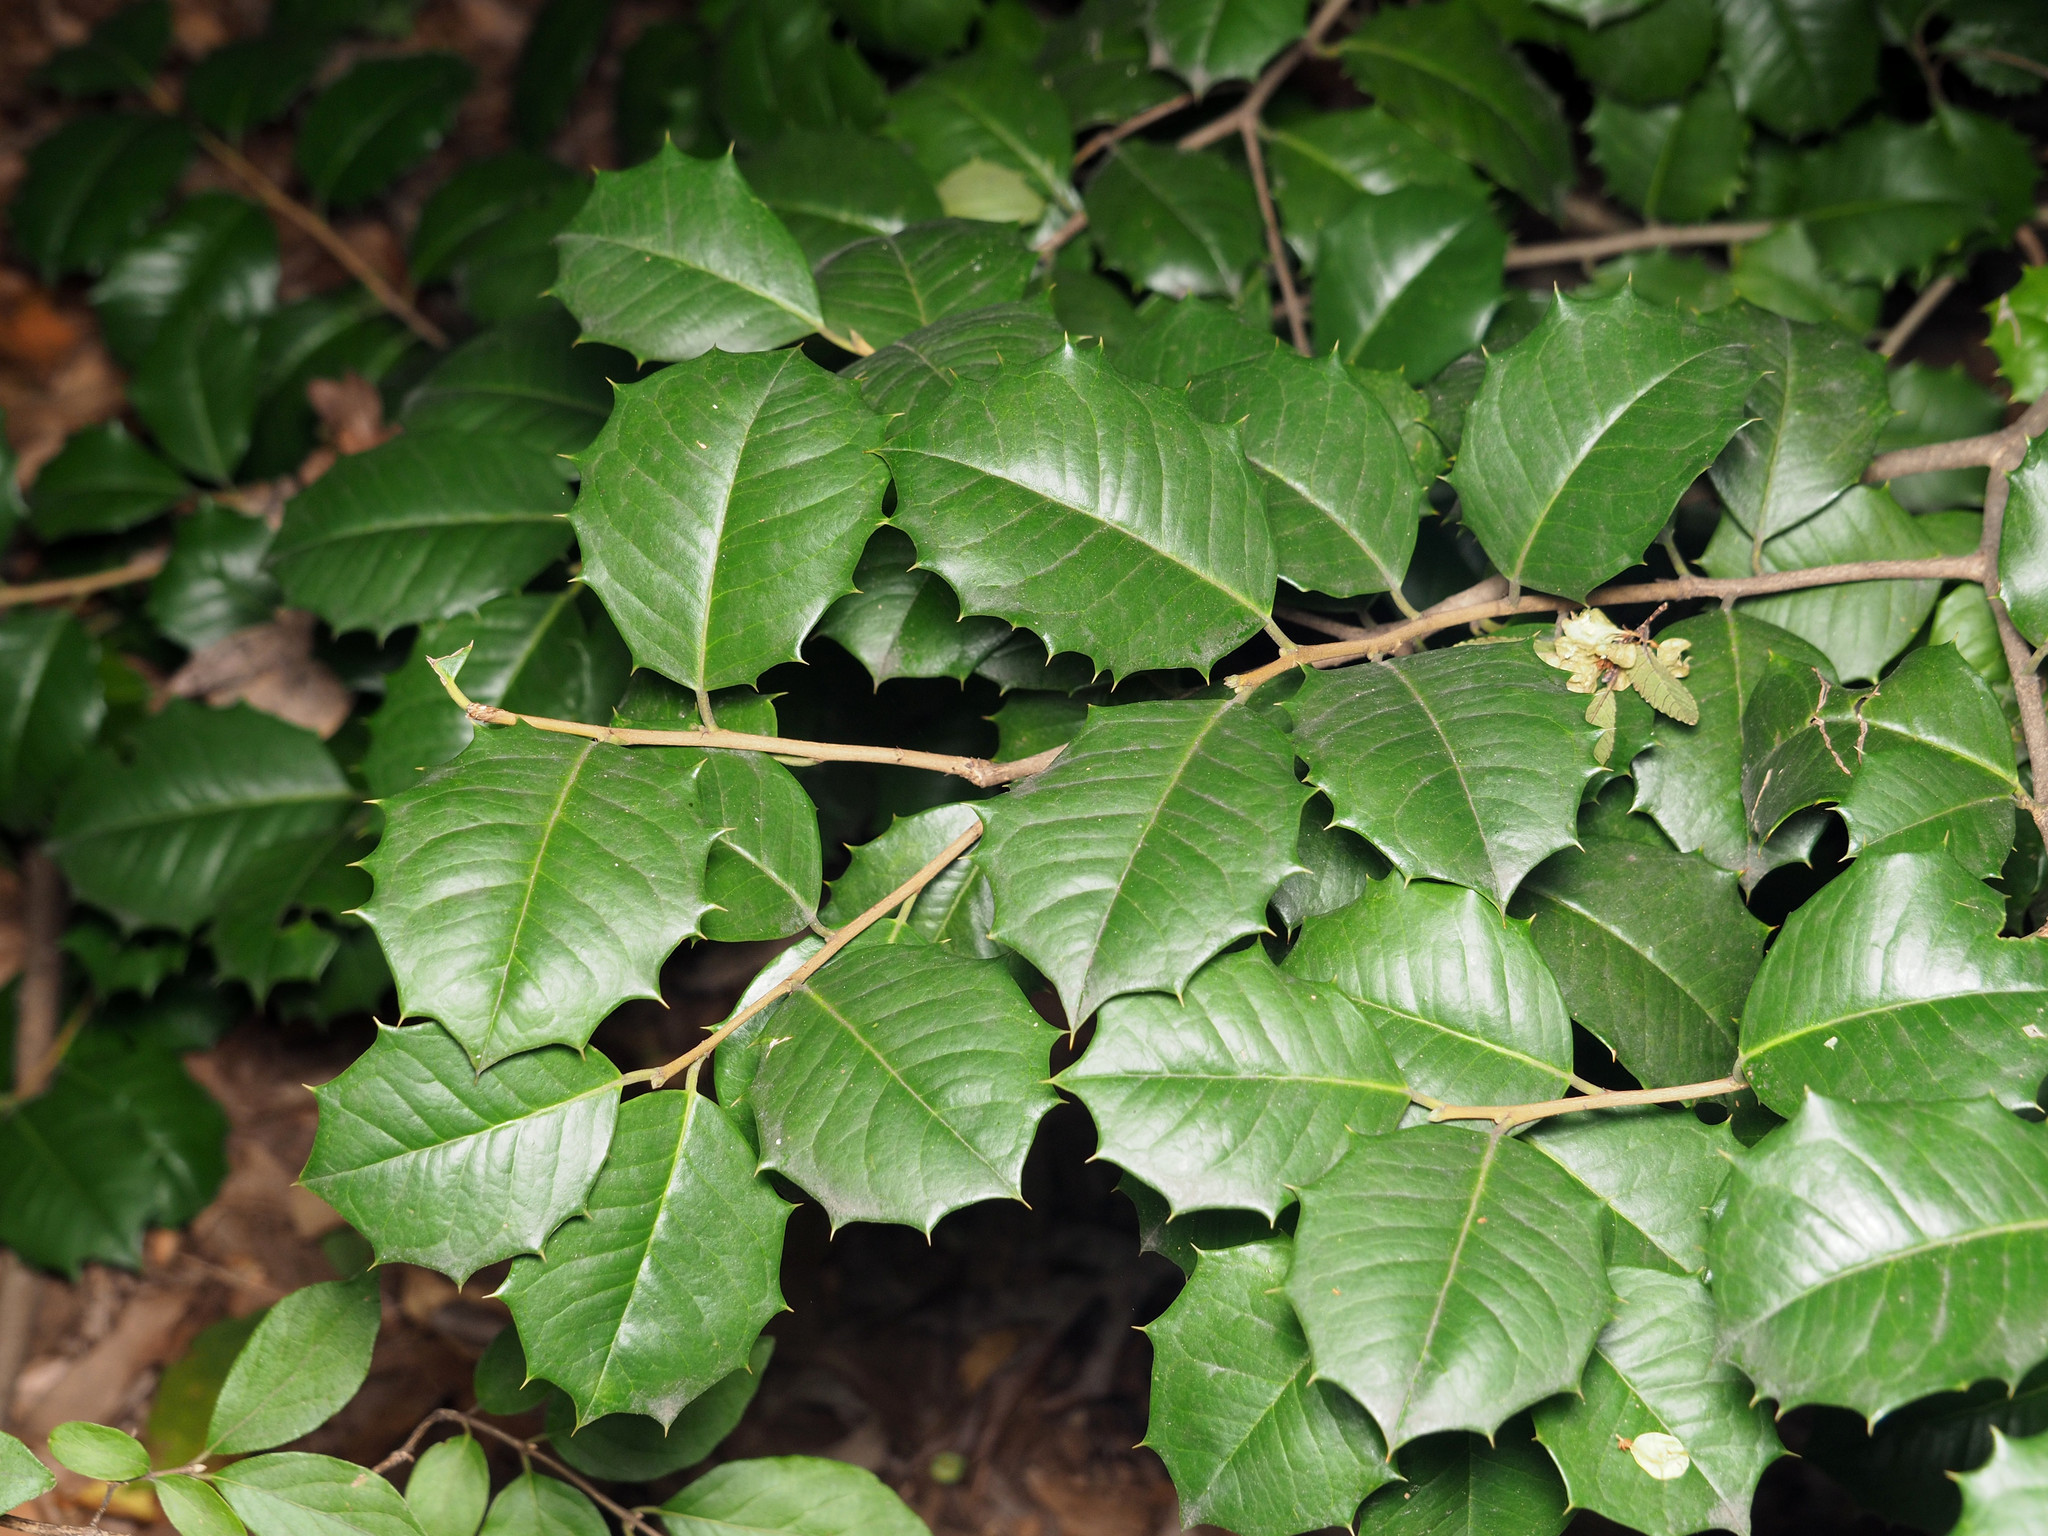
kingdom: Plantae
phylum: Tracheophyta
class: Magnoliopsida
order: Aquifoliales
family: Aquifoliaceae
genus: Ilex
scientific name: Ilex opaca
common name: American holly
